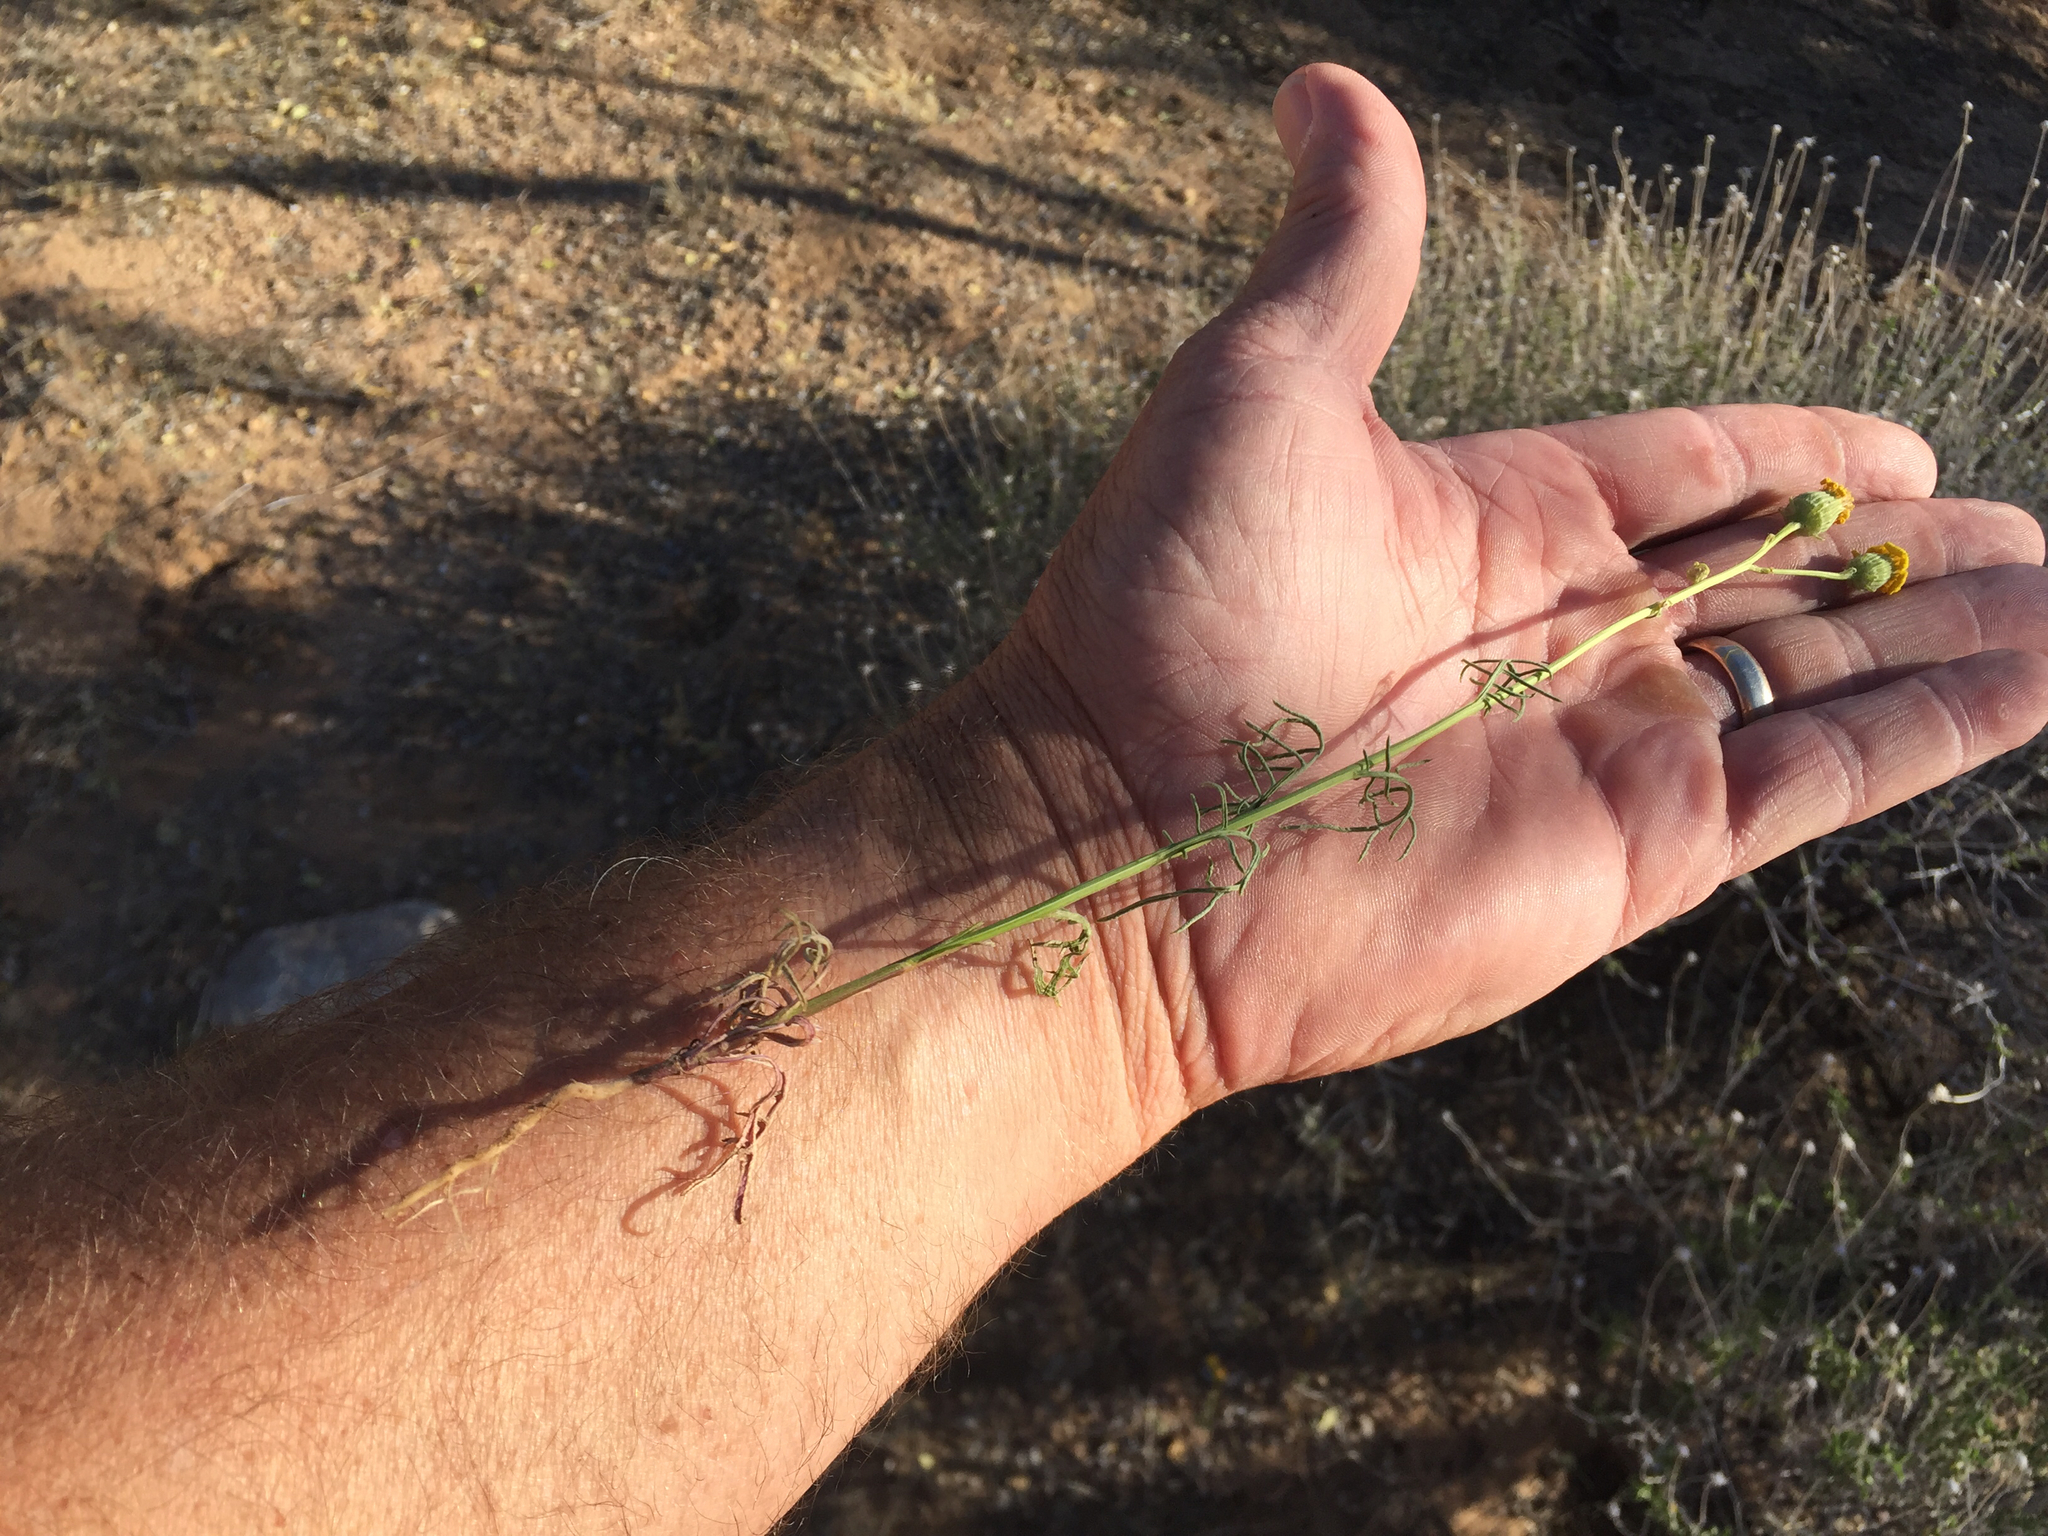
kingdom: Plantae
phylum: Tracheophyta
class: Magnoliopsida
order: Asterales
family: Asteraceae
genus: Senecio
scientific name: Senecio flaccidus
